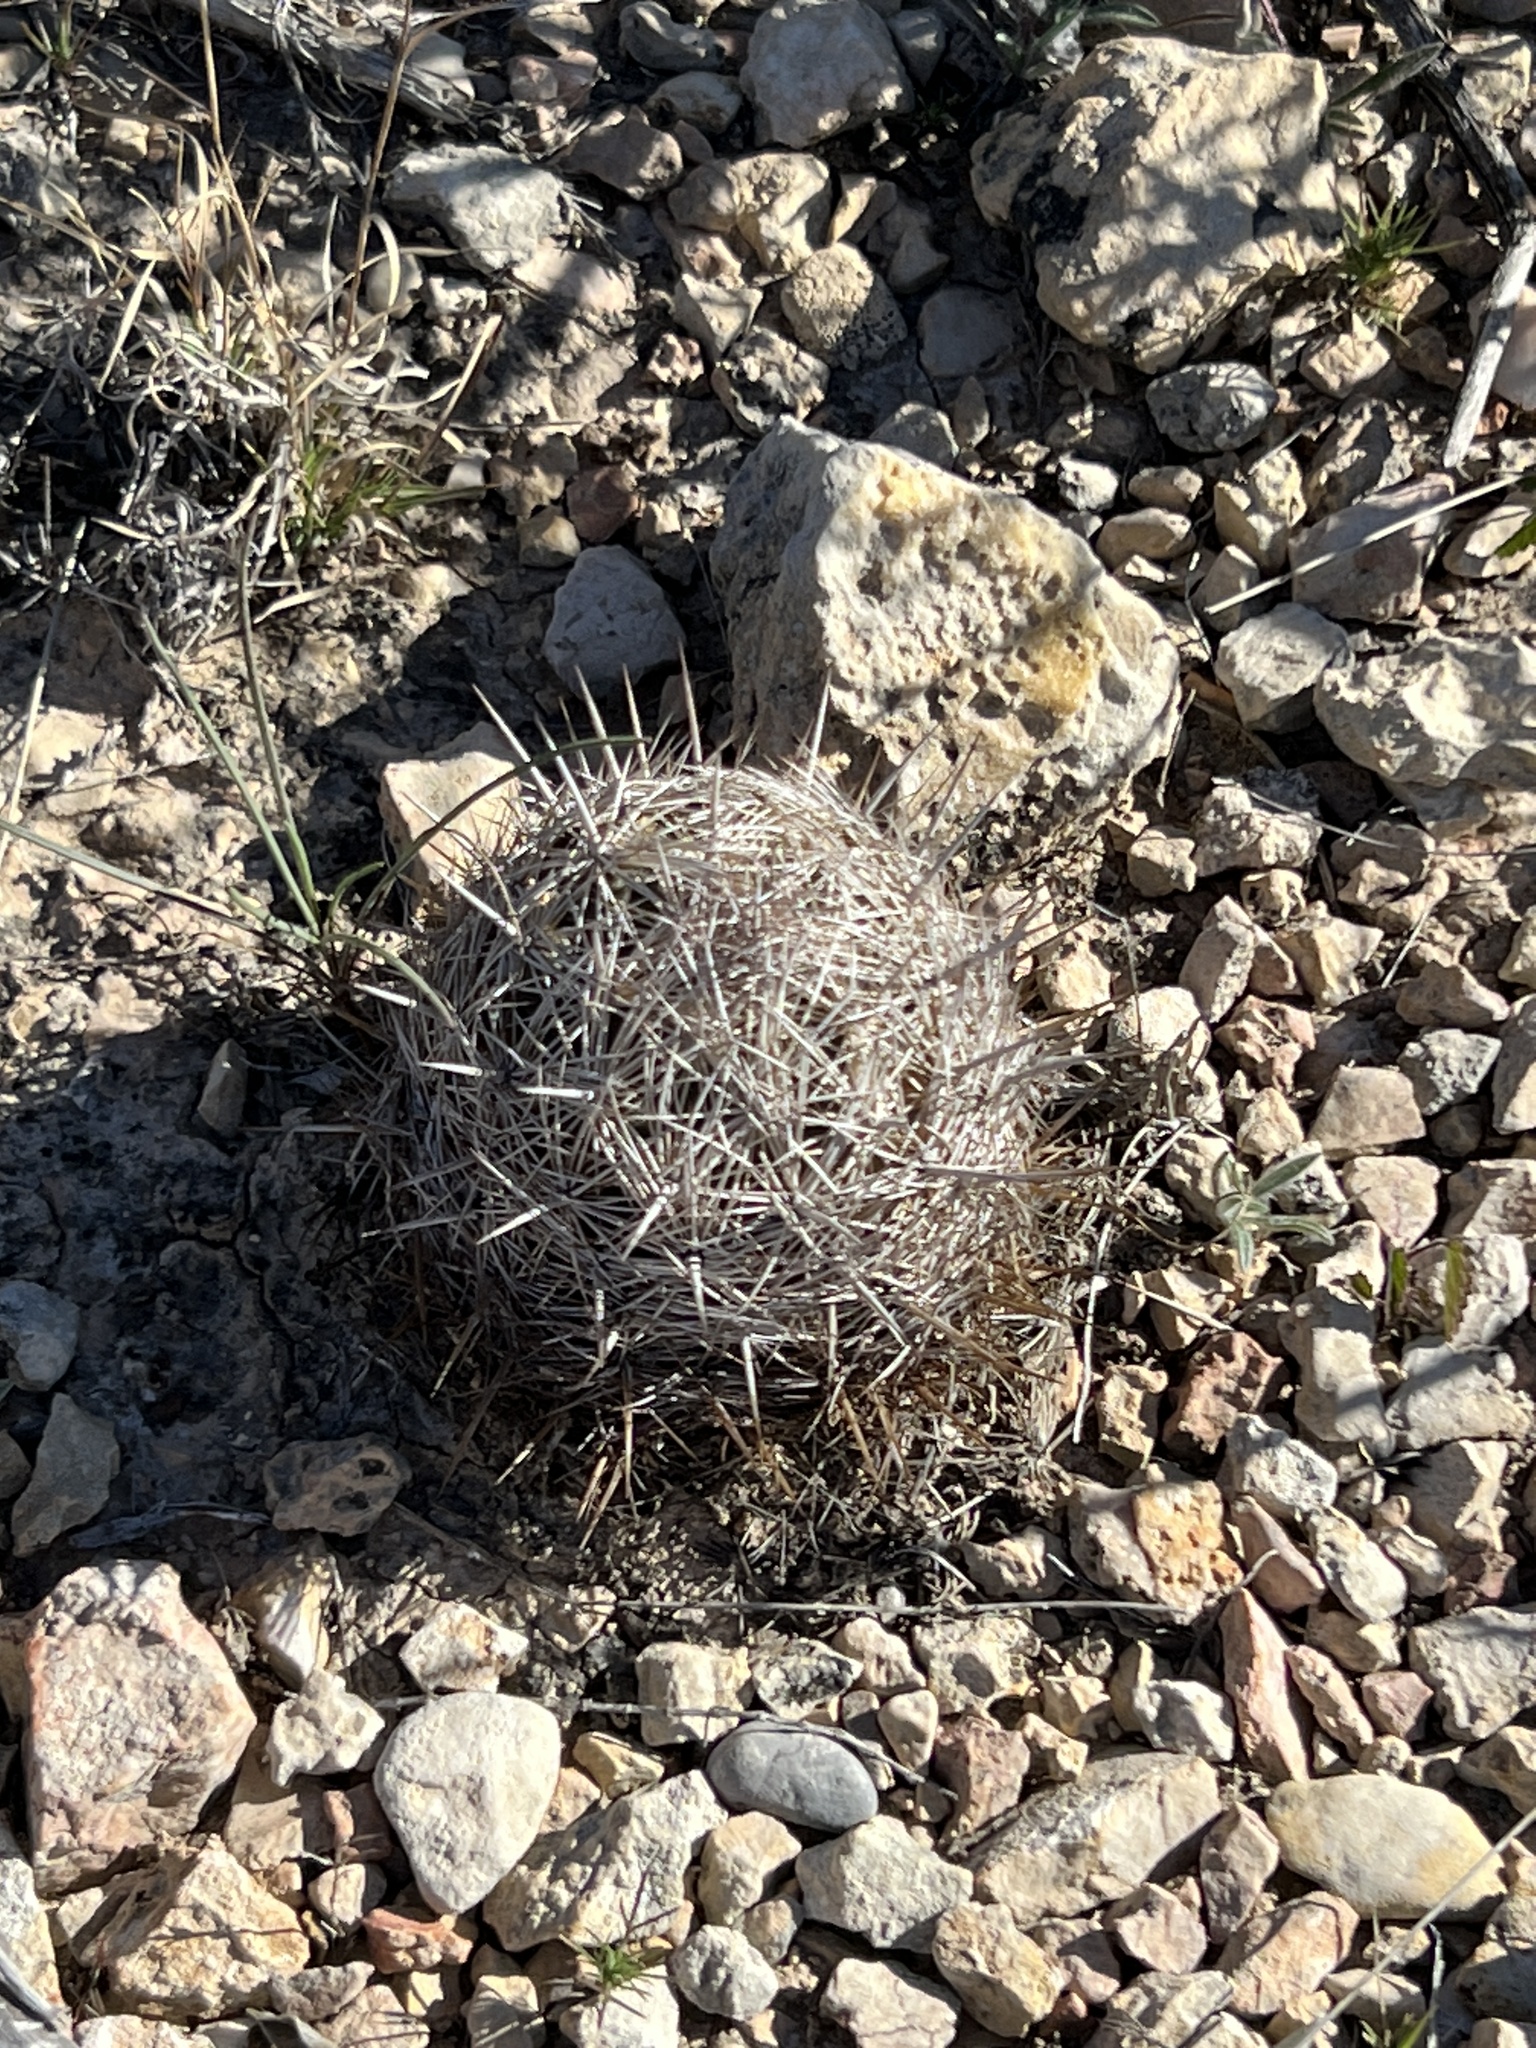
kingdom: Plantae
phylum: Tracheophyta
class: Magnoliopsida
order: Caryophyllales
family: Cactaceae
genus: Coryphantha
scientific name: Coryphantha echinus
